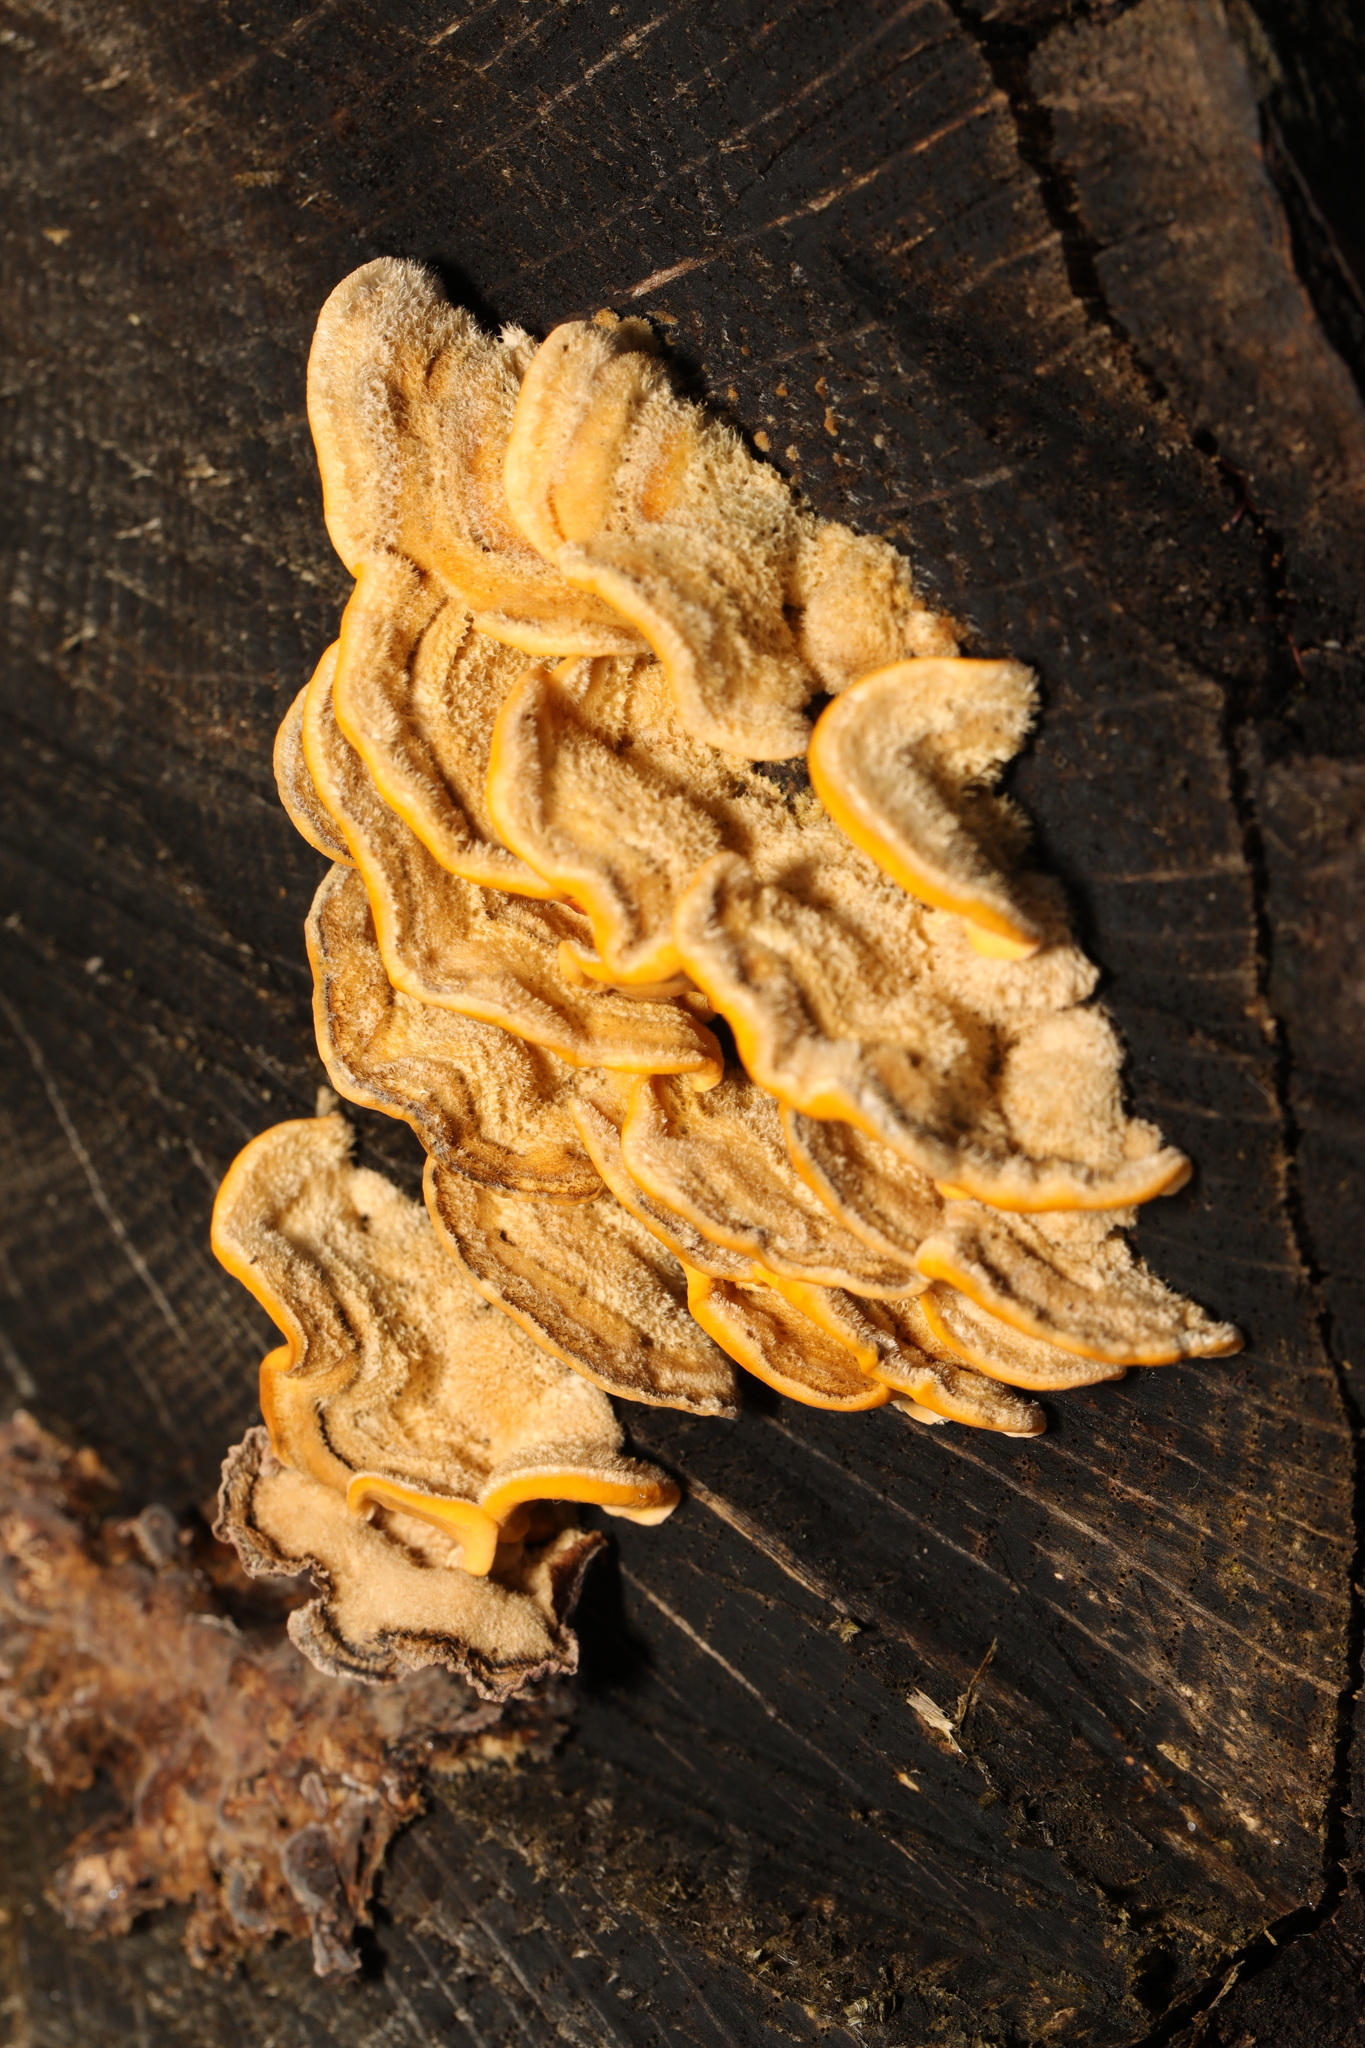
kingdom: Fungi
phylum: Basidiomycota
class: Agaricomycetes
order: Russulales
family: Stereaceae
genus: Stereum
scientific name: Stereum hirsutum
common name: Hairy curtain crust
